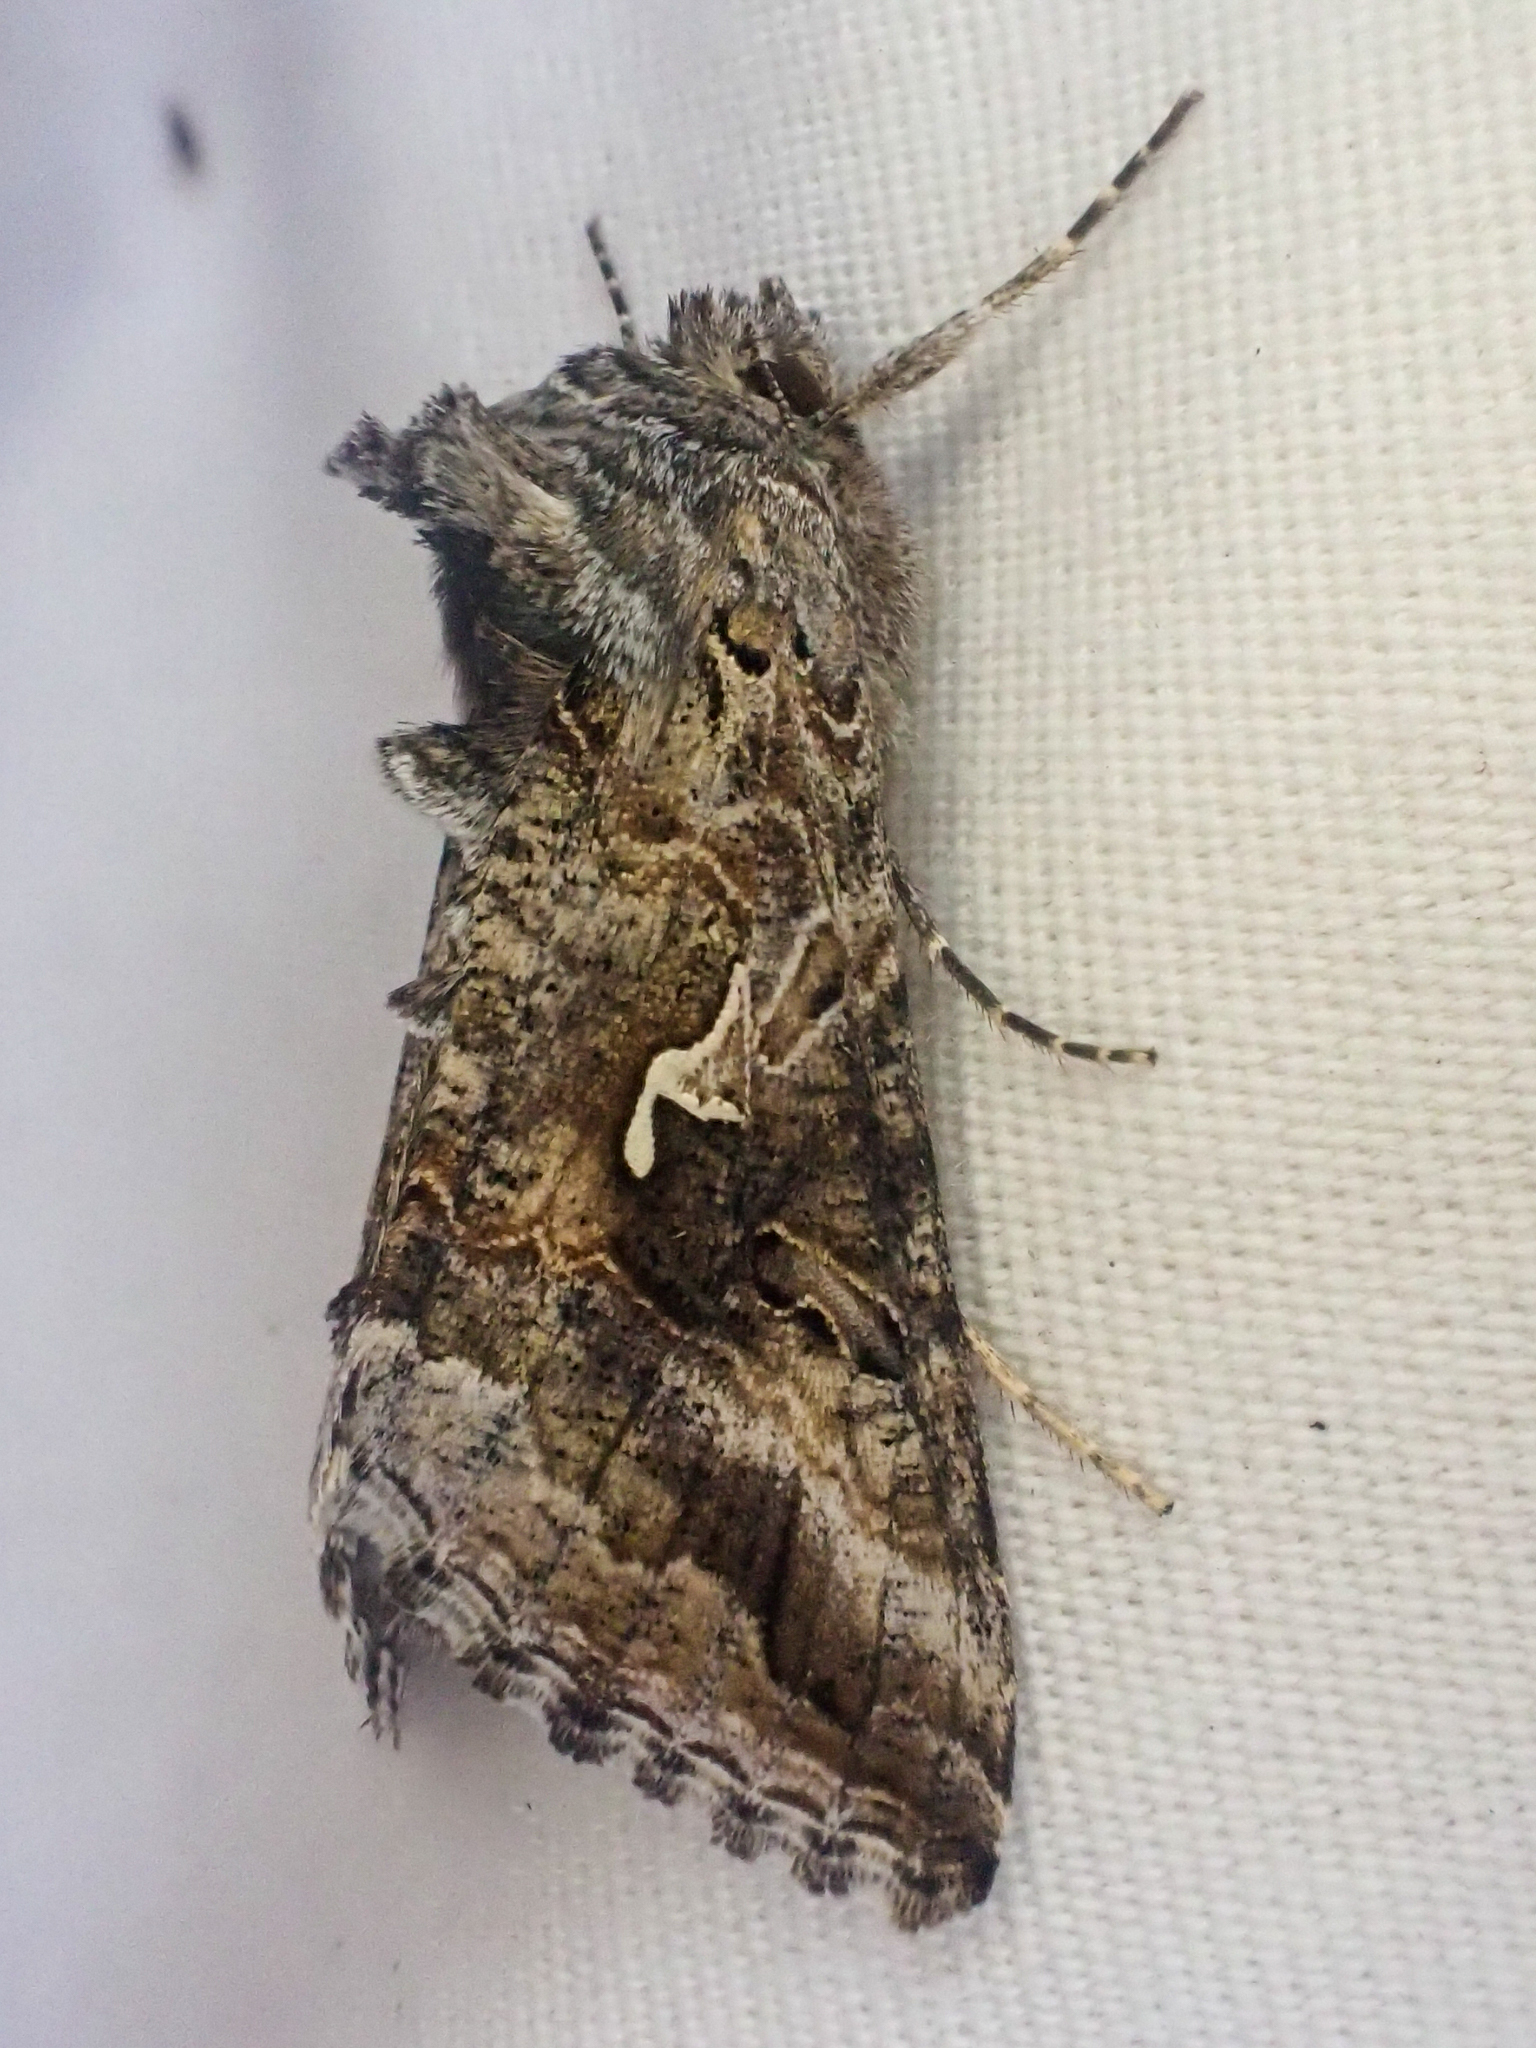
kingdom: Animalia
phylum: Arthropoda
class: Insecta
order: Lepidoptera
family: Noctuidae
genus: Autographa
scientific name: Autographa californica
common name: Alfalfa looper
